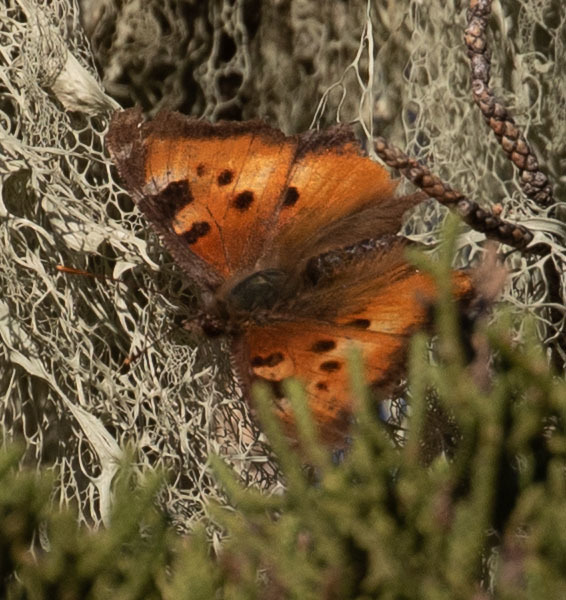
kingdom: Animalia
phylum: Arthropoda
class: Insecta
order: Lepidoptera
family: Nymphalidae
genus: Nymphalis
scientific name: Nymphalis californica
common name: California tortoiseshell
